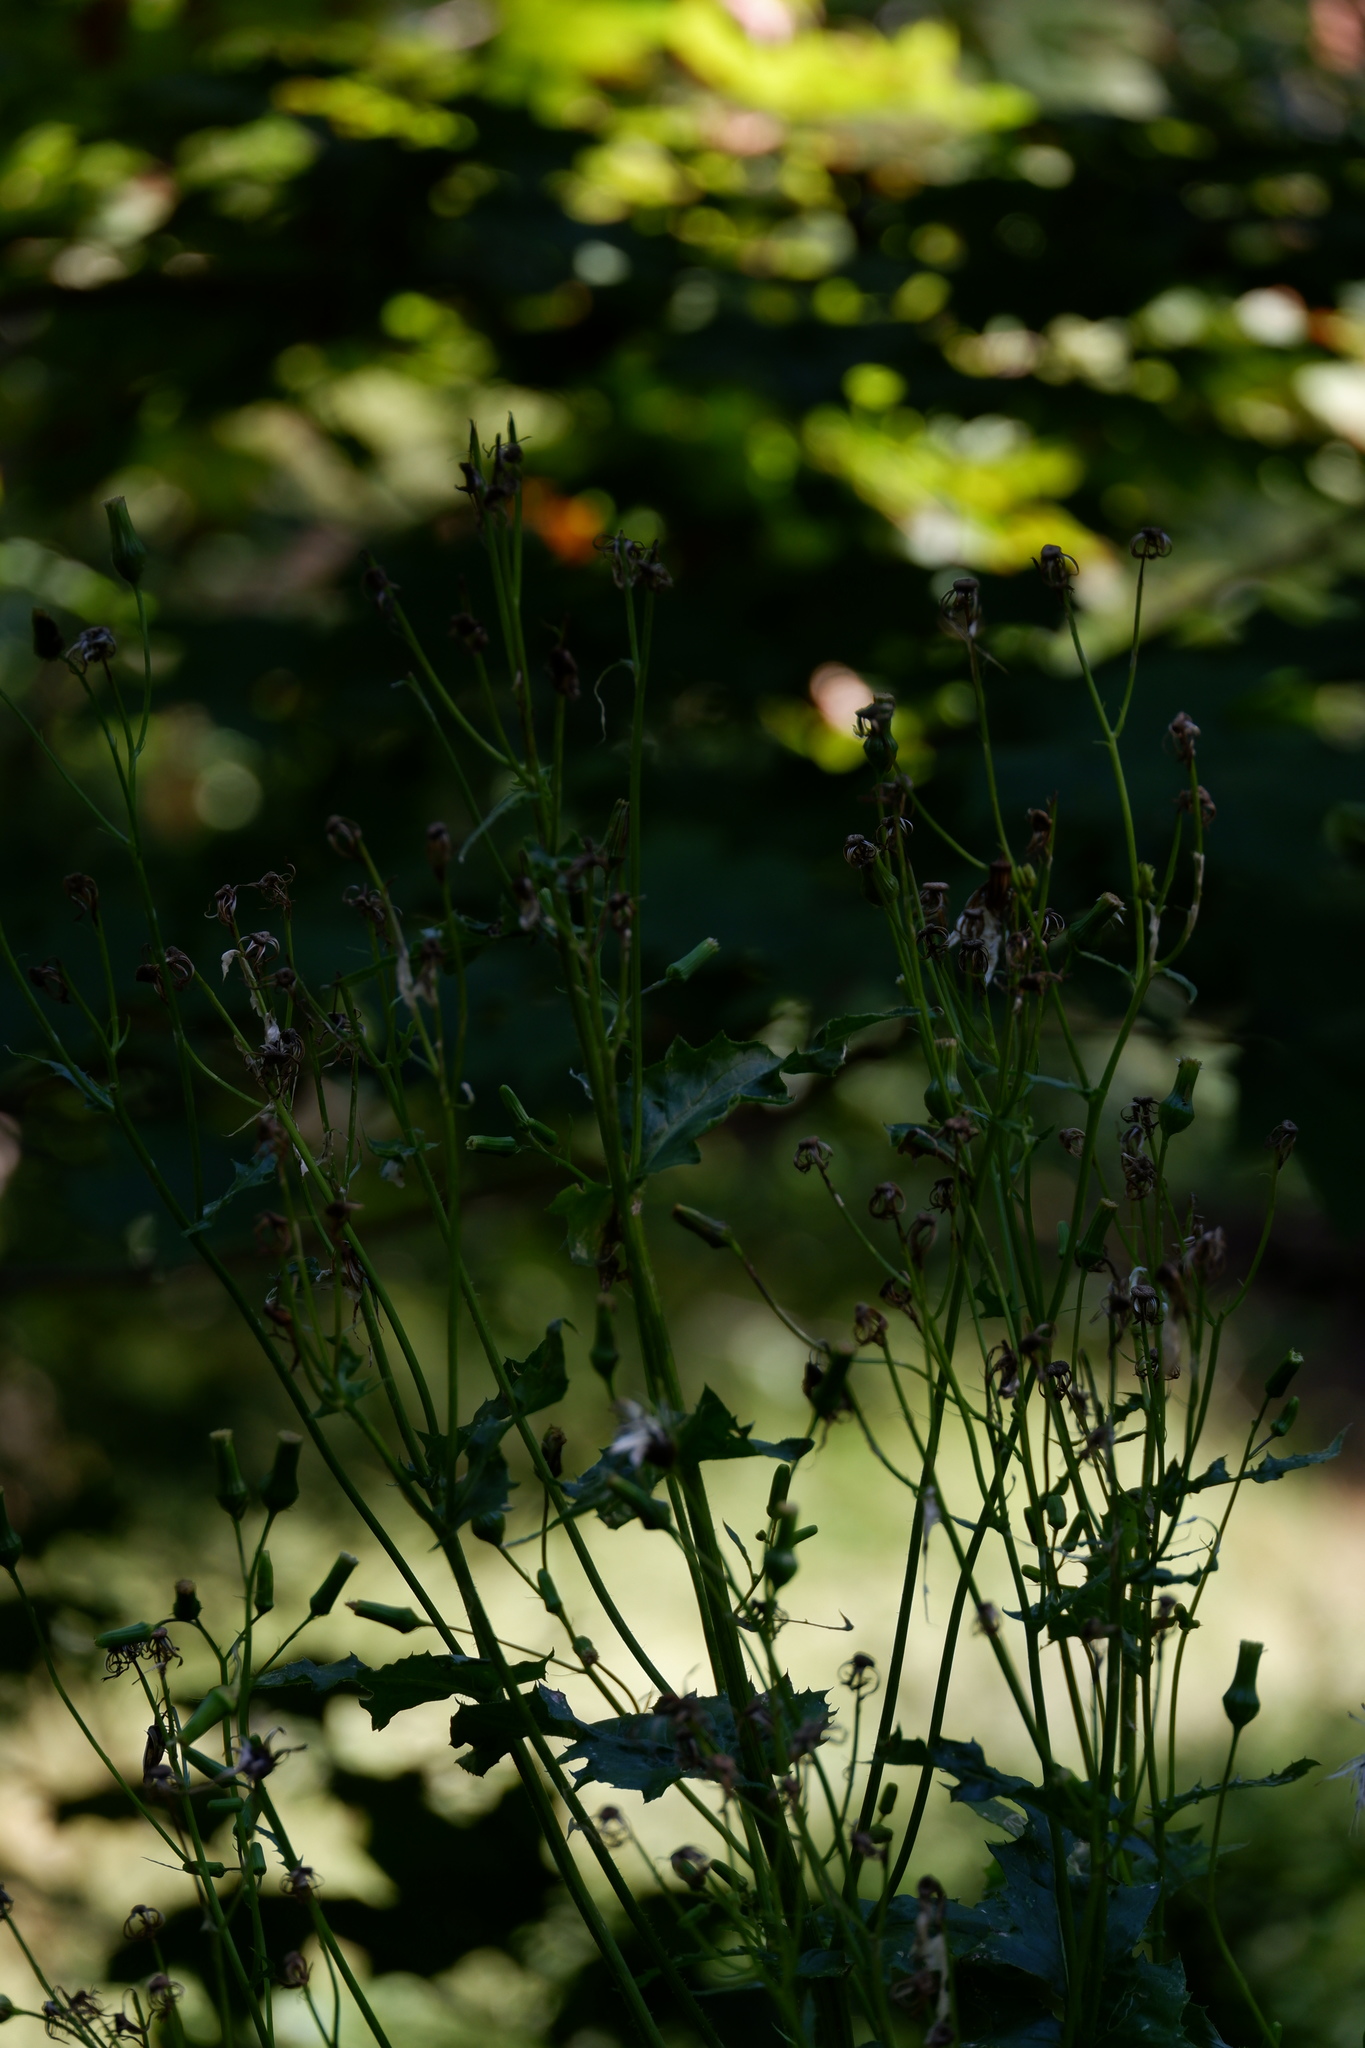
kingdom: Plantae
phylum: Tracheophyta
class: Magnoliopsida
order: Asterales
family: Asteraceae
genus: Erechtites
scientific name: Erechtites hieraciifolius
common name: American burnweed
